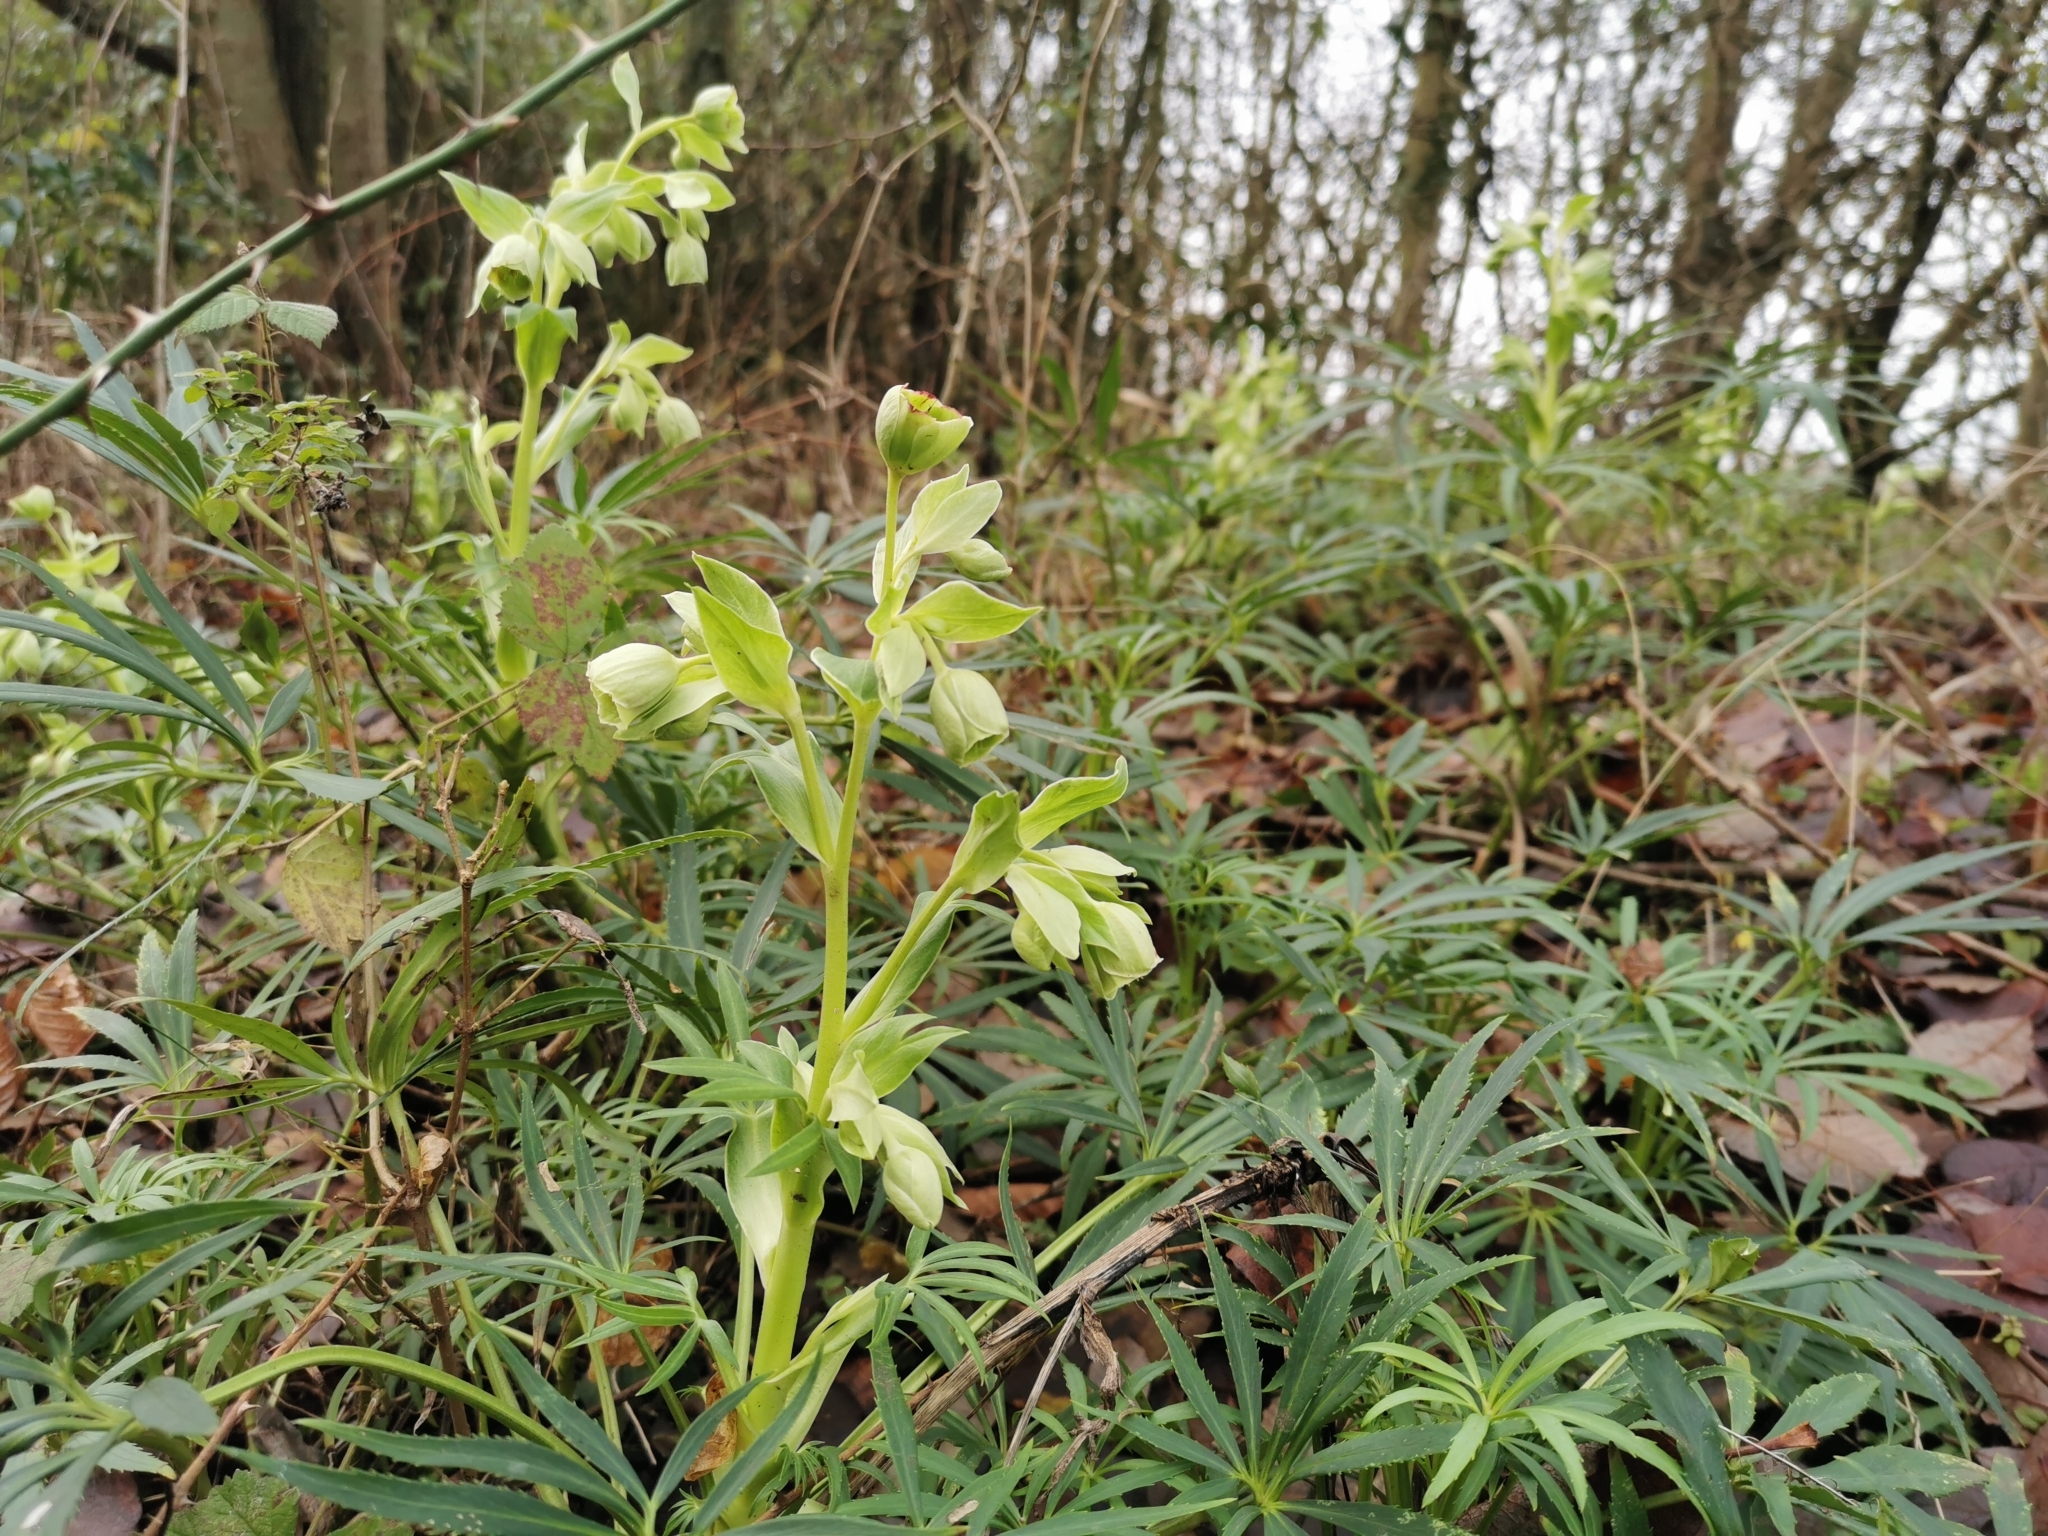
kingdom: Plantae
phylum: Tracheophyta
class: Magnoliopsida
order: Ranunculales
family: Ranunculaceae
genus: Helleborus
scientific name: Helleborus foetidus
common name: Stinking hellebore
